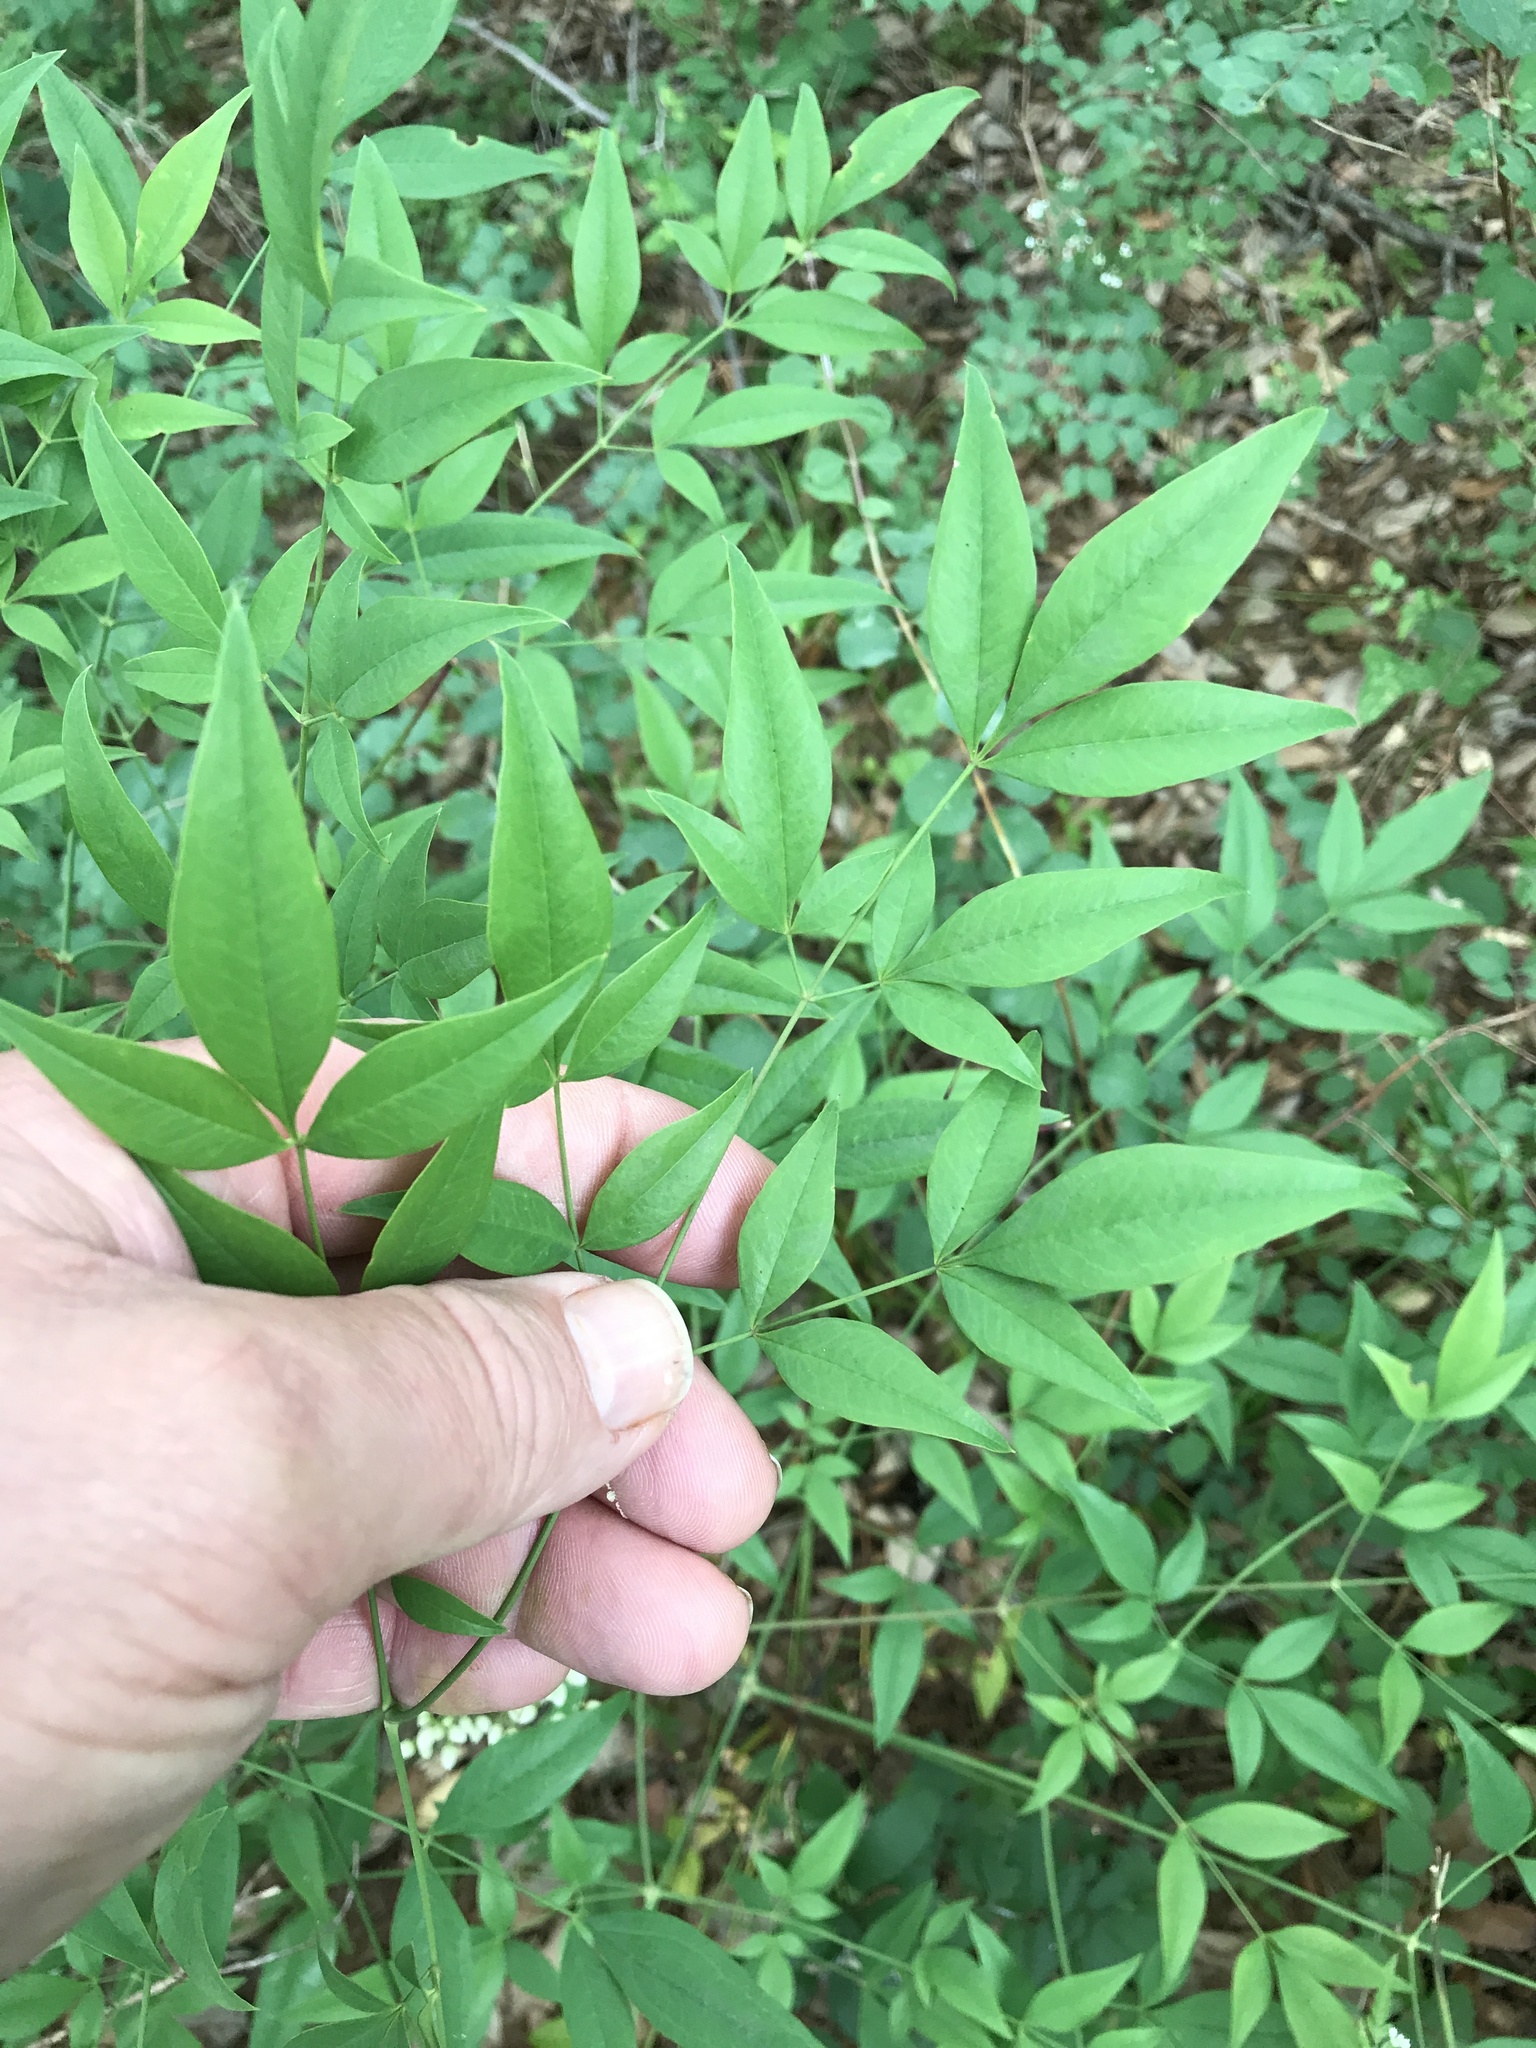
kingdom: Plantae
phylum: Tracheophyta
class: Magnoliopsida
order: Ranunculales
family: Berberidaceae
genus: Nandina
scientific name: Nandina domestica
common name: Sacred bamboo
